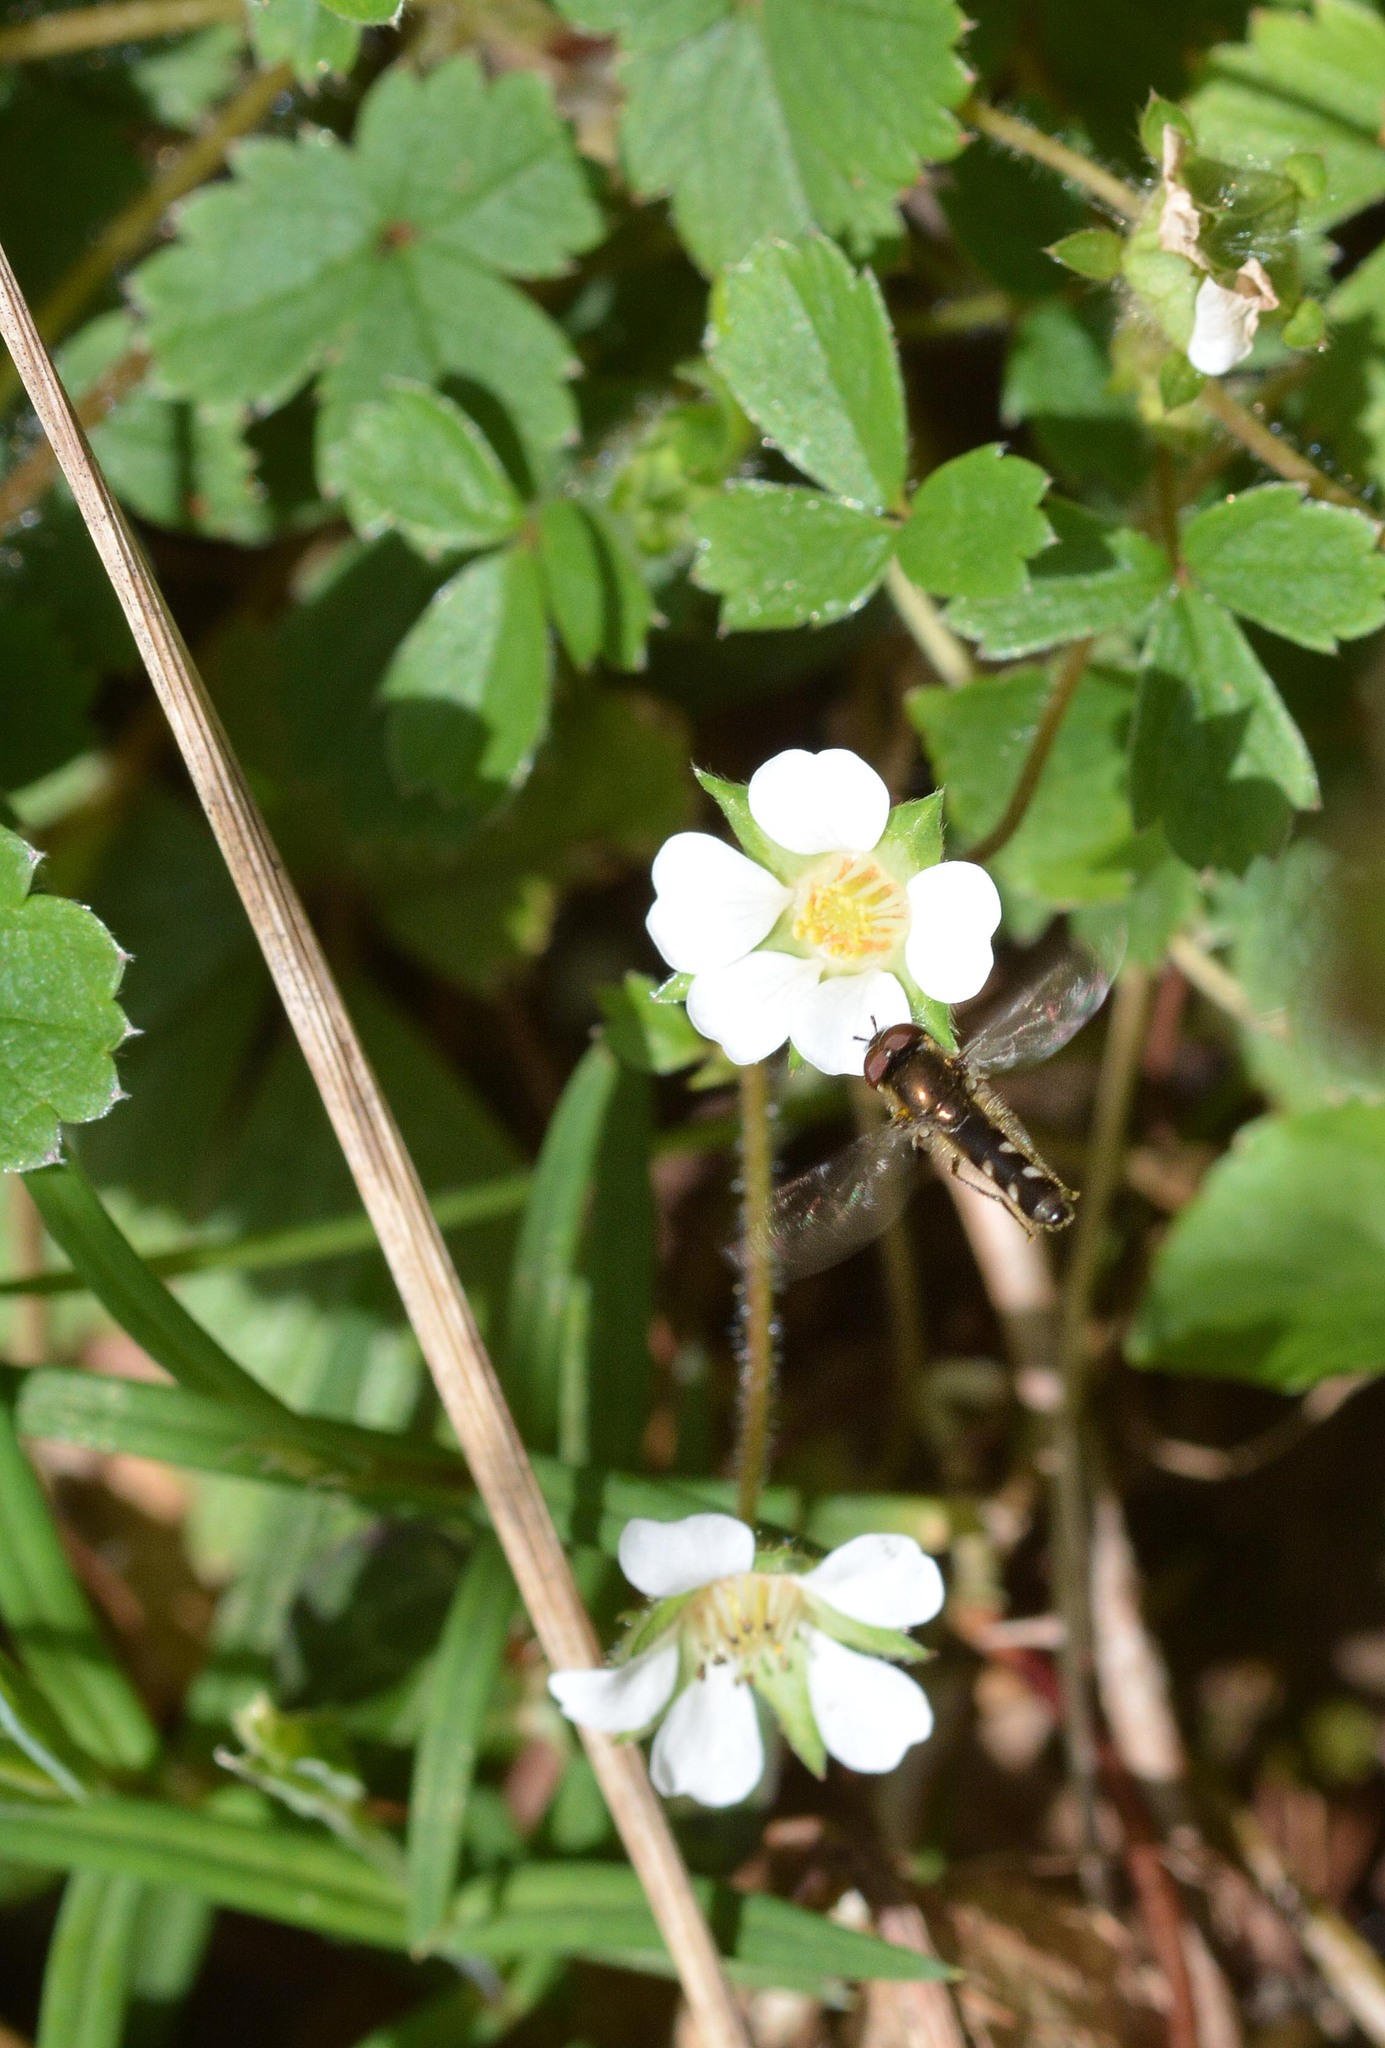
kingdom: Animalia
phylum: Arthropoda
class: Insecta
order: Diptera
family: Syrphidae
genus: Platycheirus
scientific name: Platycheirus albimanus
